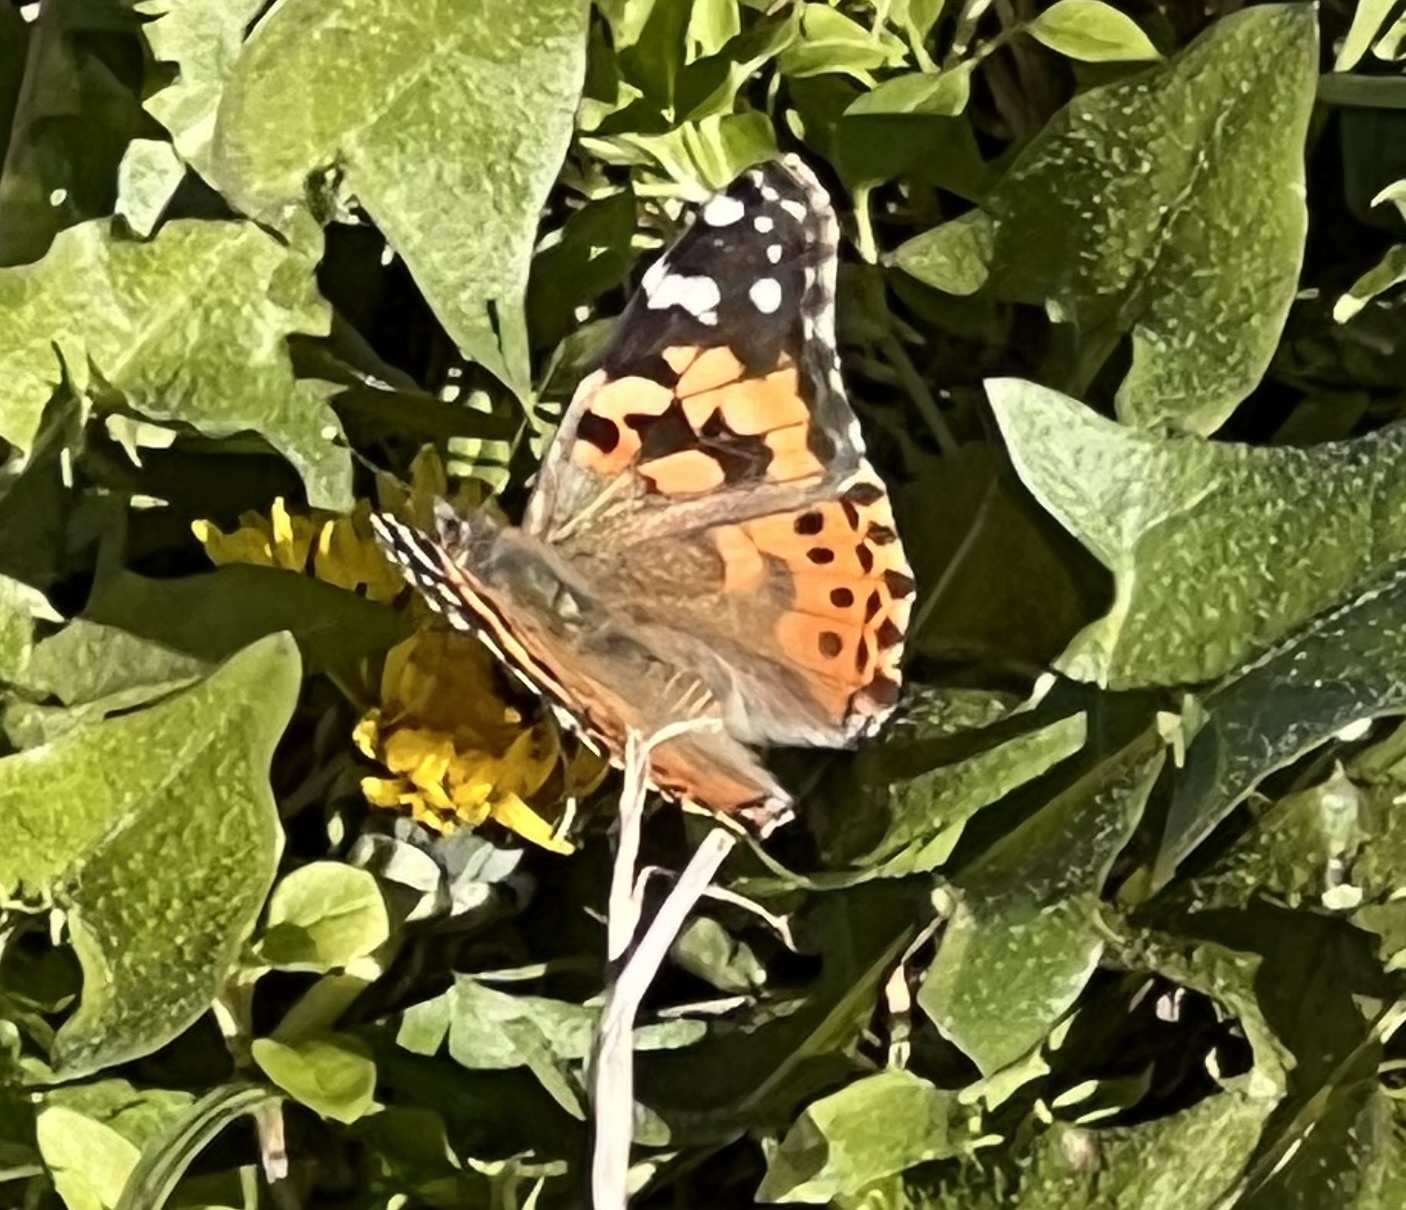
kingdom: Animalia
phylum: Arthropoda
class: Insecta
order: Lepidoptera
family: Nymphalidae
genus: Vanessa
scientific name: Vanessa cardui
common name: Painted lady
